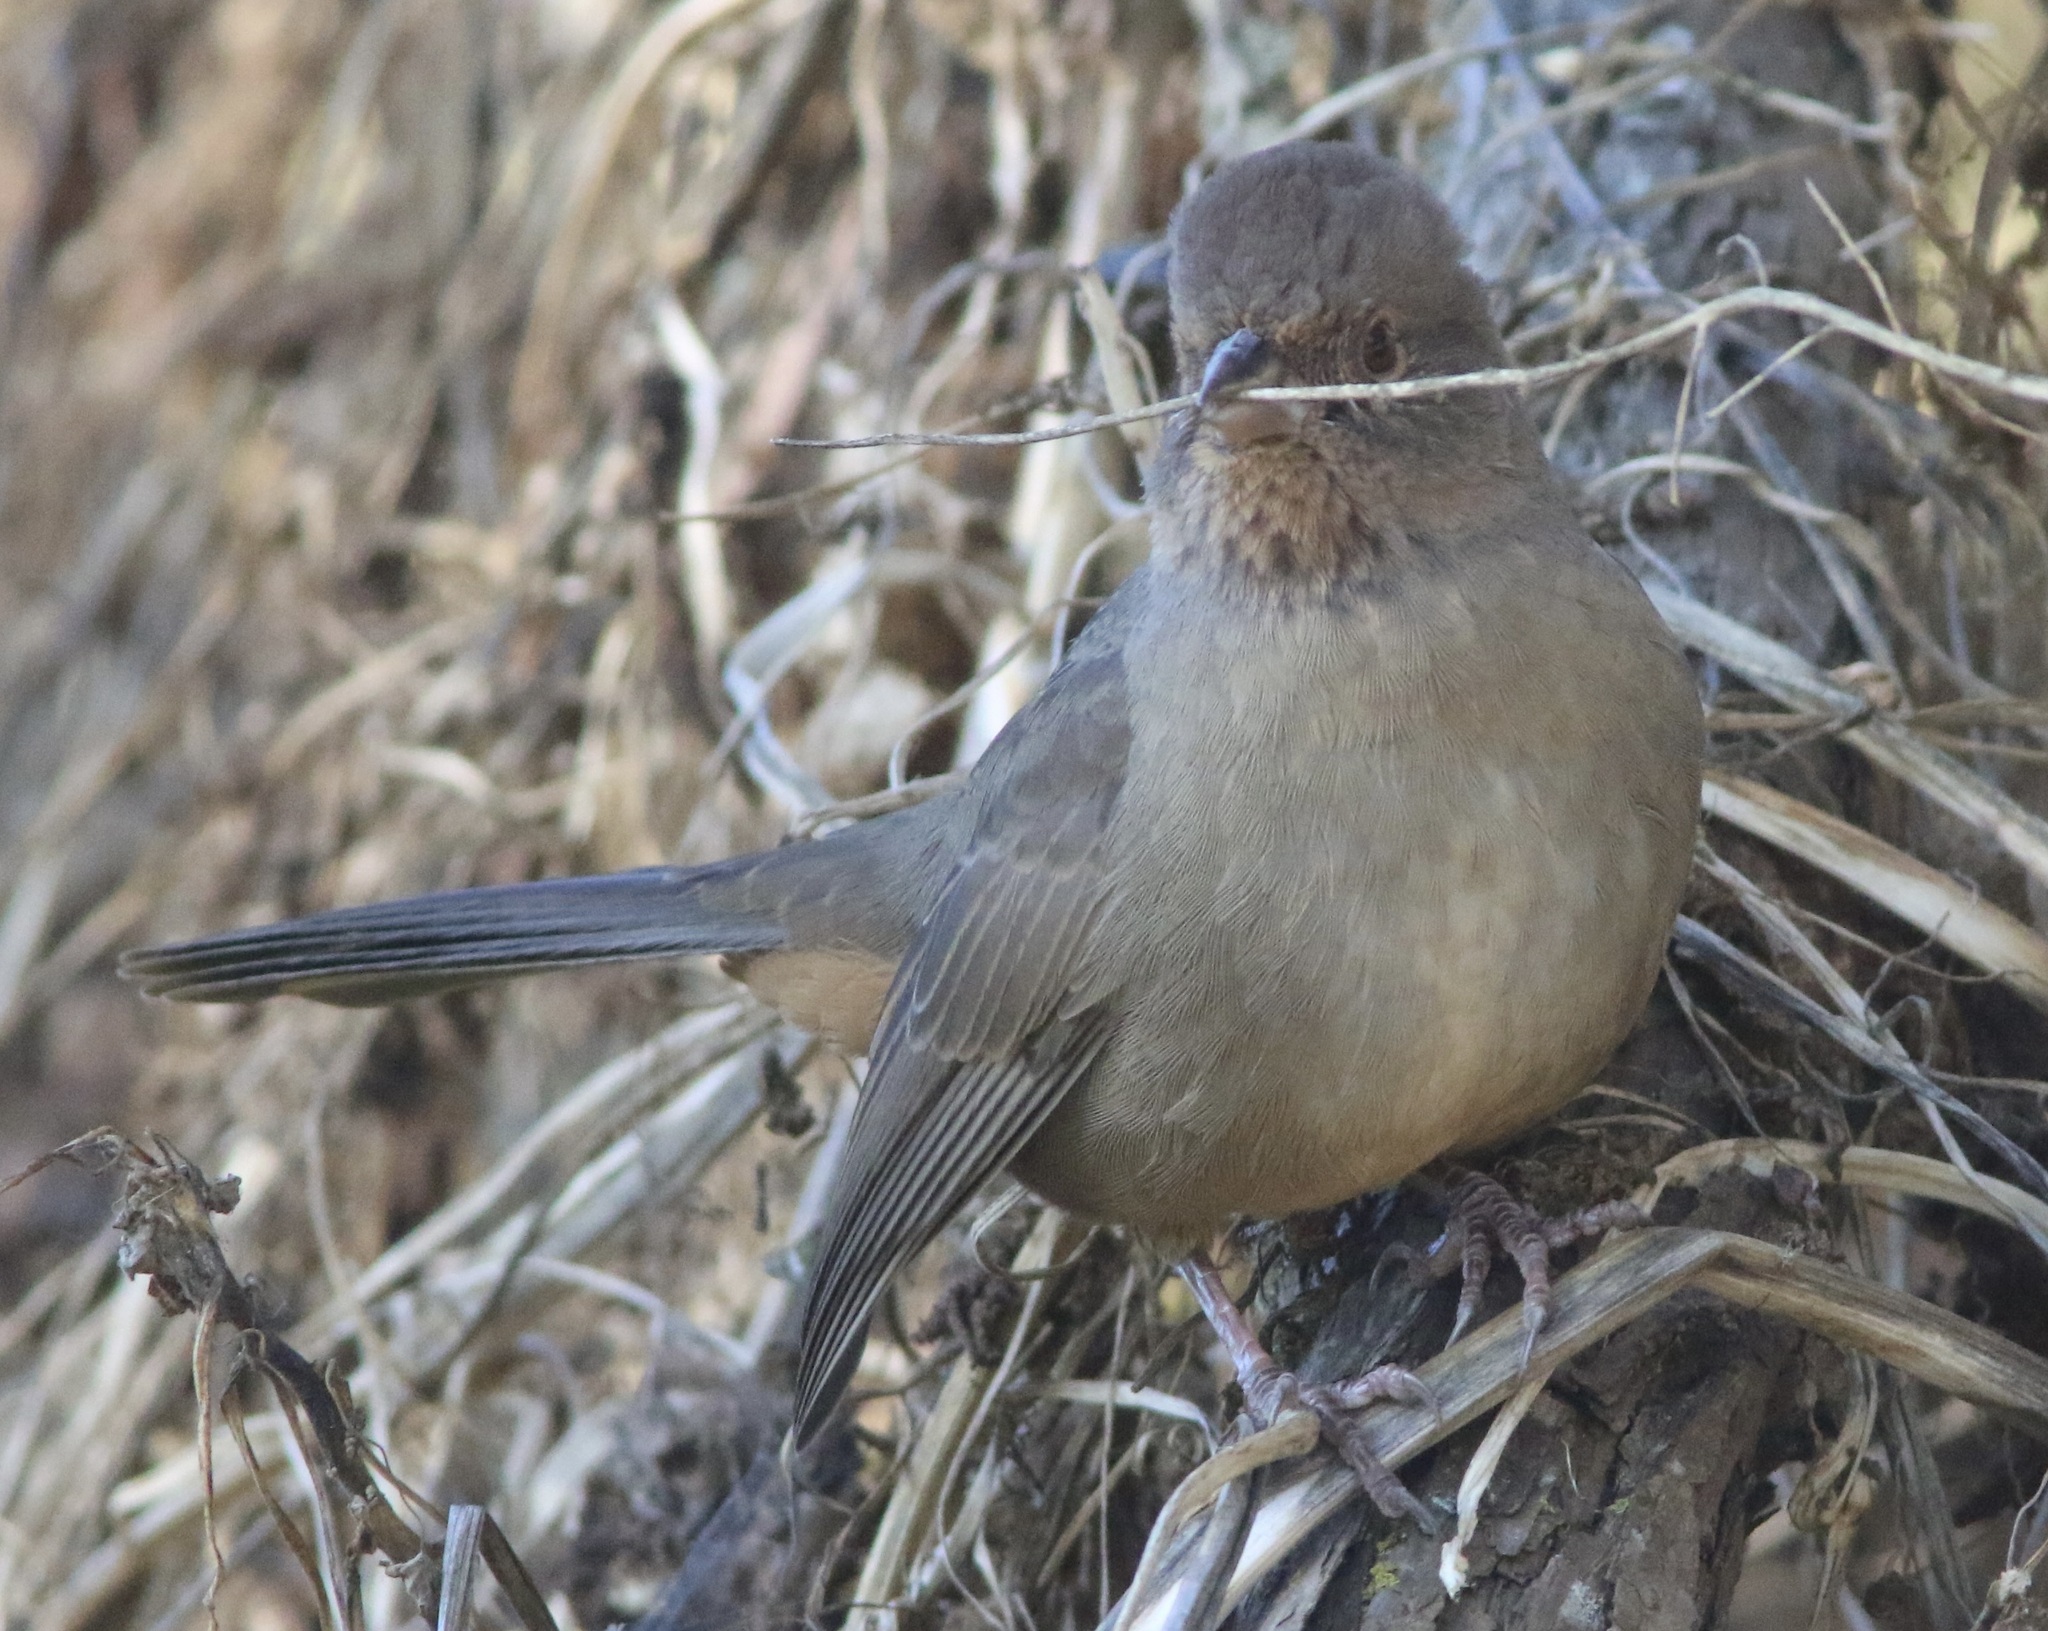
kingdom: Animalia
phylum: Chordata
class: Aves
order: Passeriformes
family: Passerellidae
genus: Melozone
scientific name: Melozone crissalis
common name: California towhee
